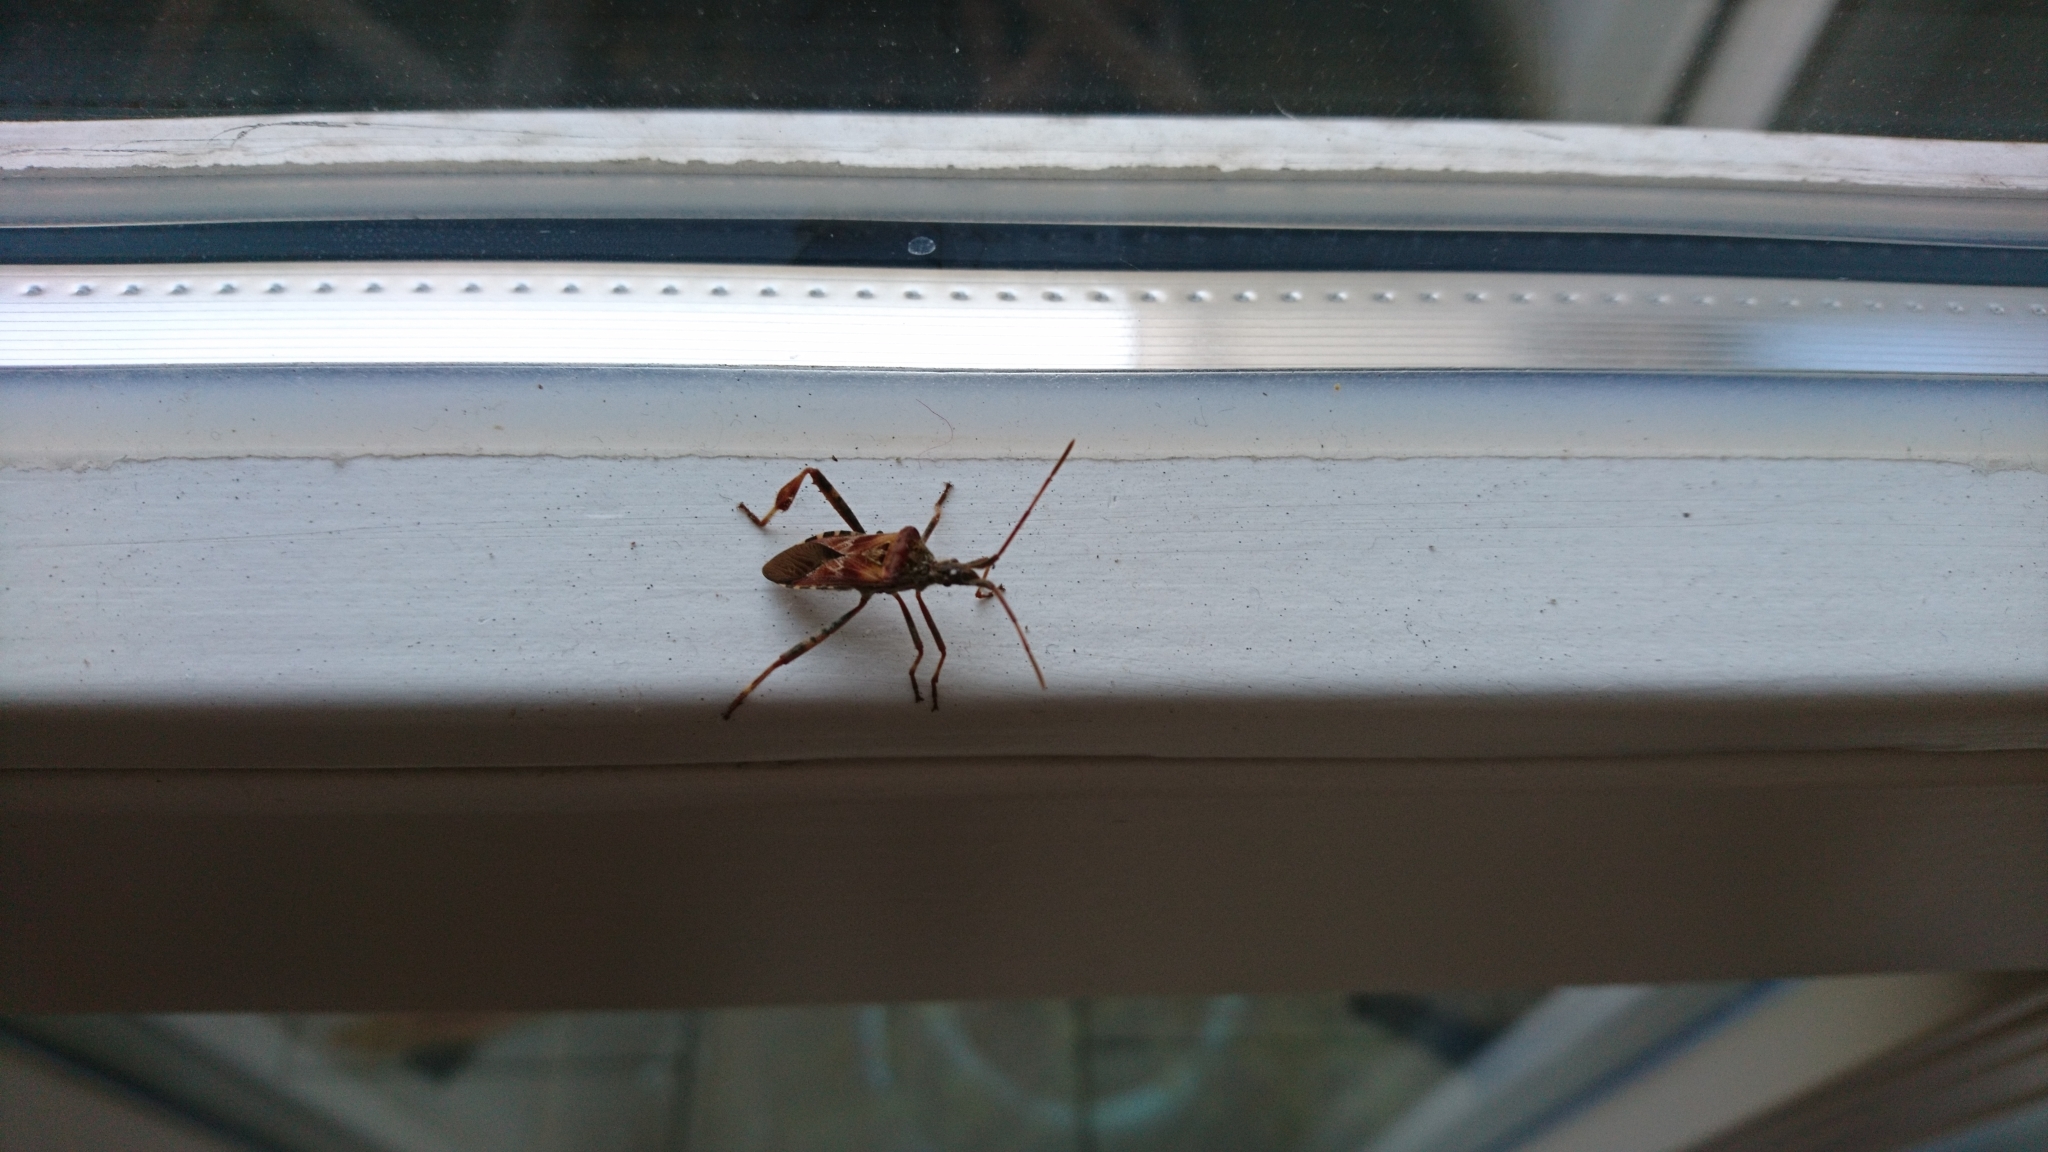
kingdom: Animalia
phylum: Arthropoda
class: Insecta
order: Hemiptera
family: Coreidae
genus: Leptoglossus
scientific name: Leptoglossus occidentalis
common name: Western conifer-seed bug
